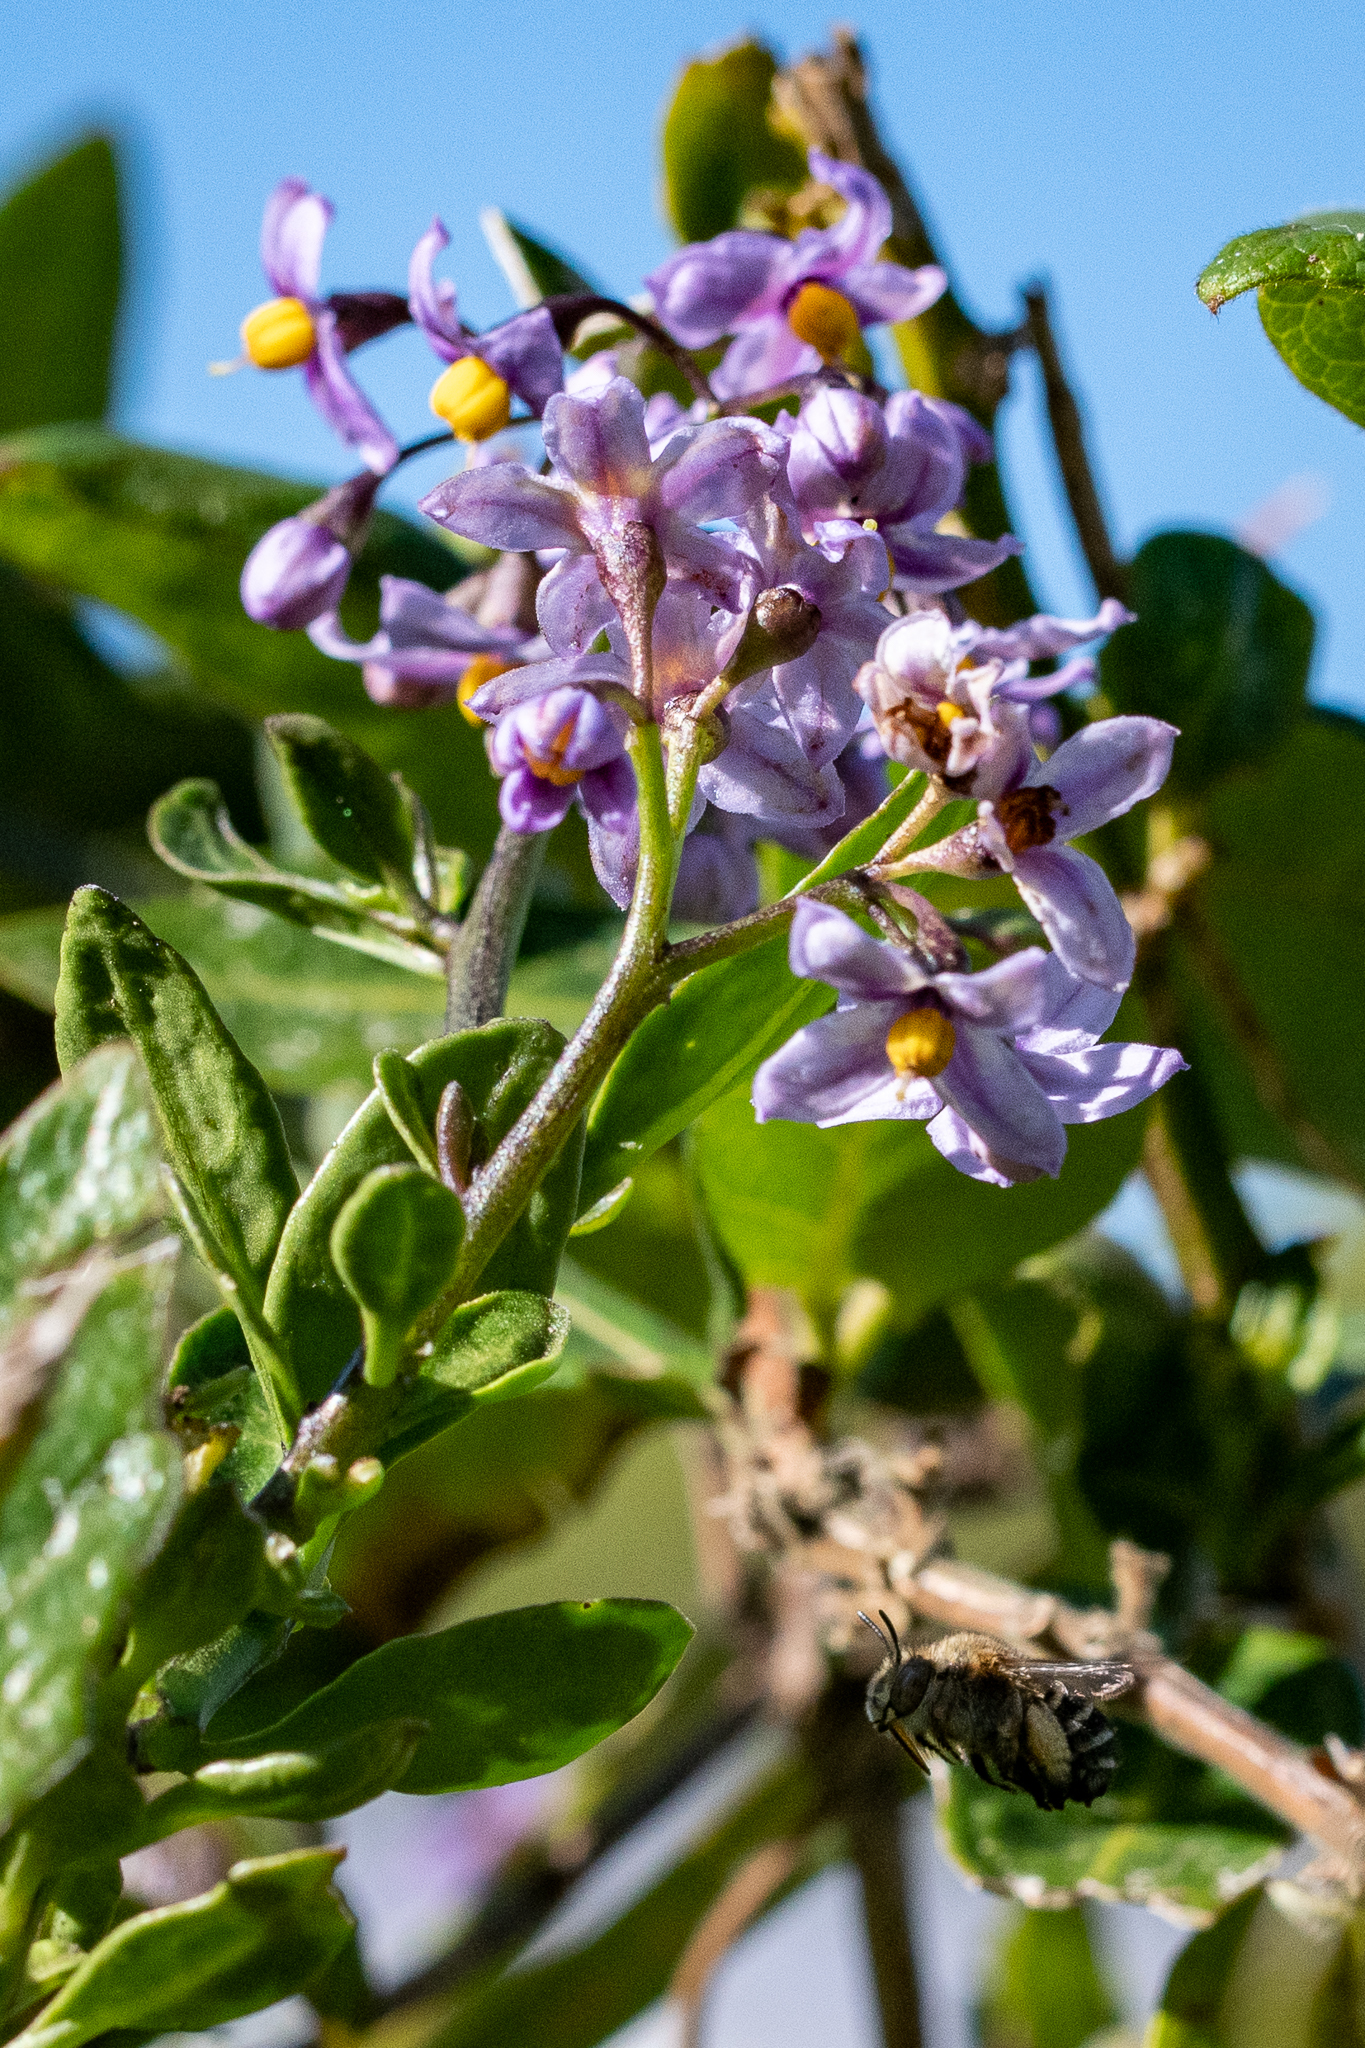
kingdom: Plantae
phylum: Tracheophyta
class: Magnoliopsida
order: Solanales
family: Solanaceae
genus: Solanum
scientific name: Solanum africanum
